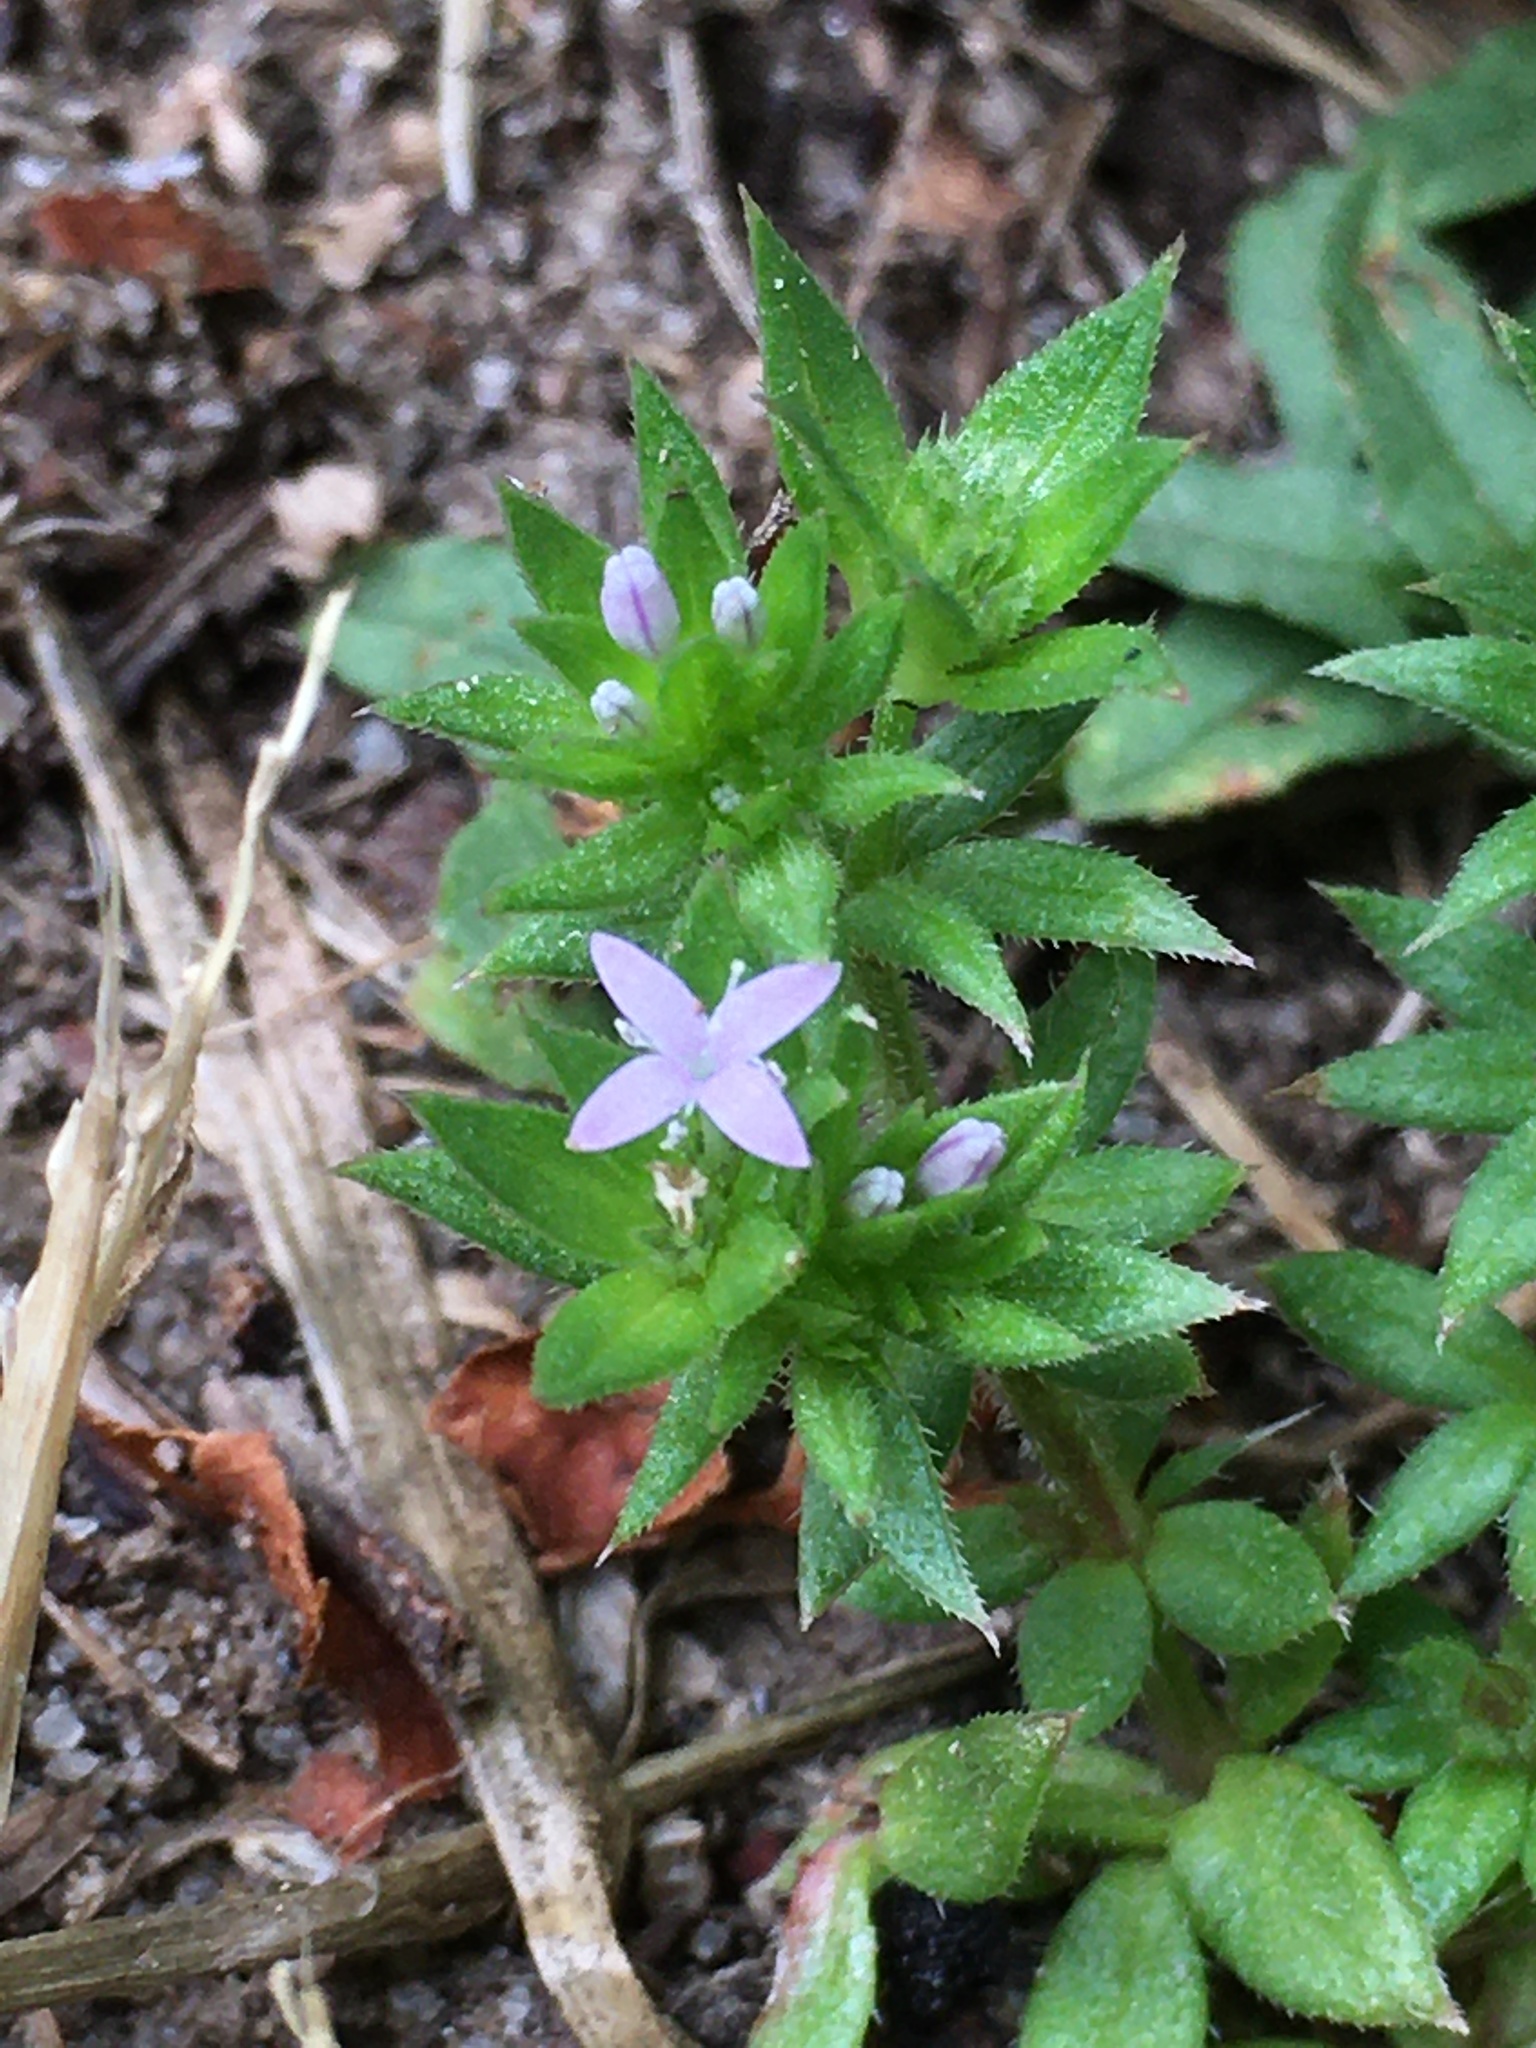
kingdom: Plantae
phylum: Tracheophyta
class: Magnoliopsida
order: Gentianales
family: Rubiaceae
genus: Sherardia
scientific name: Sherardia arvensis
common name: Field madder
